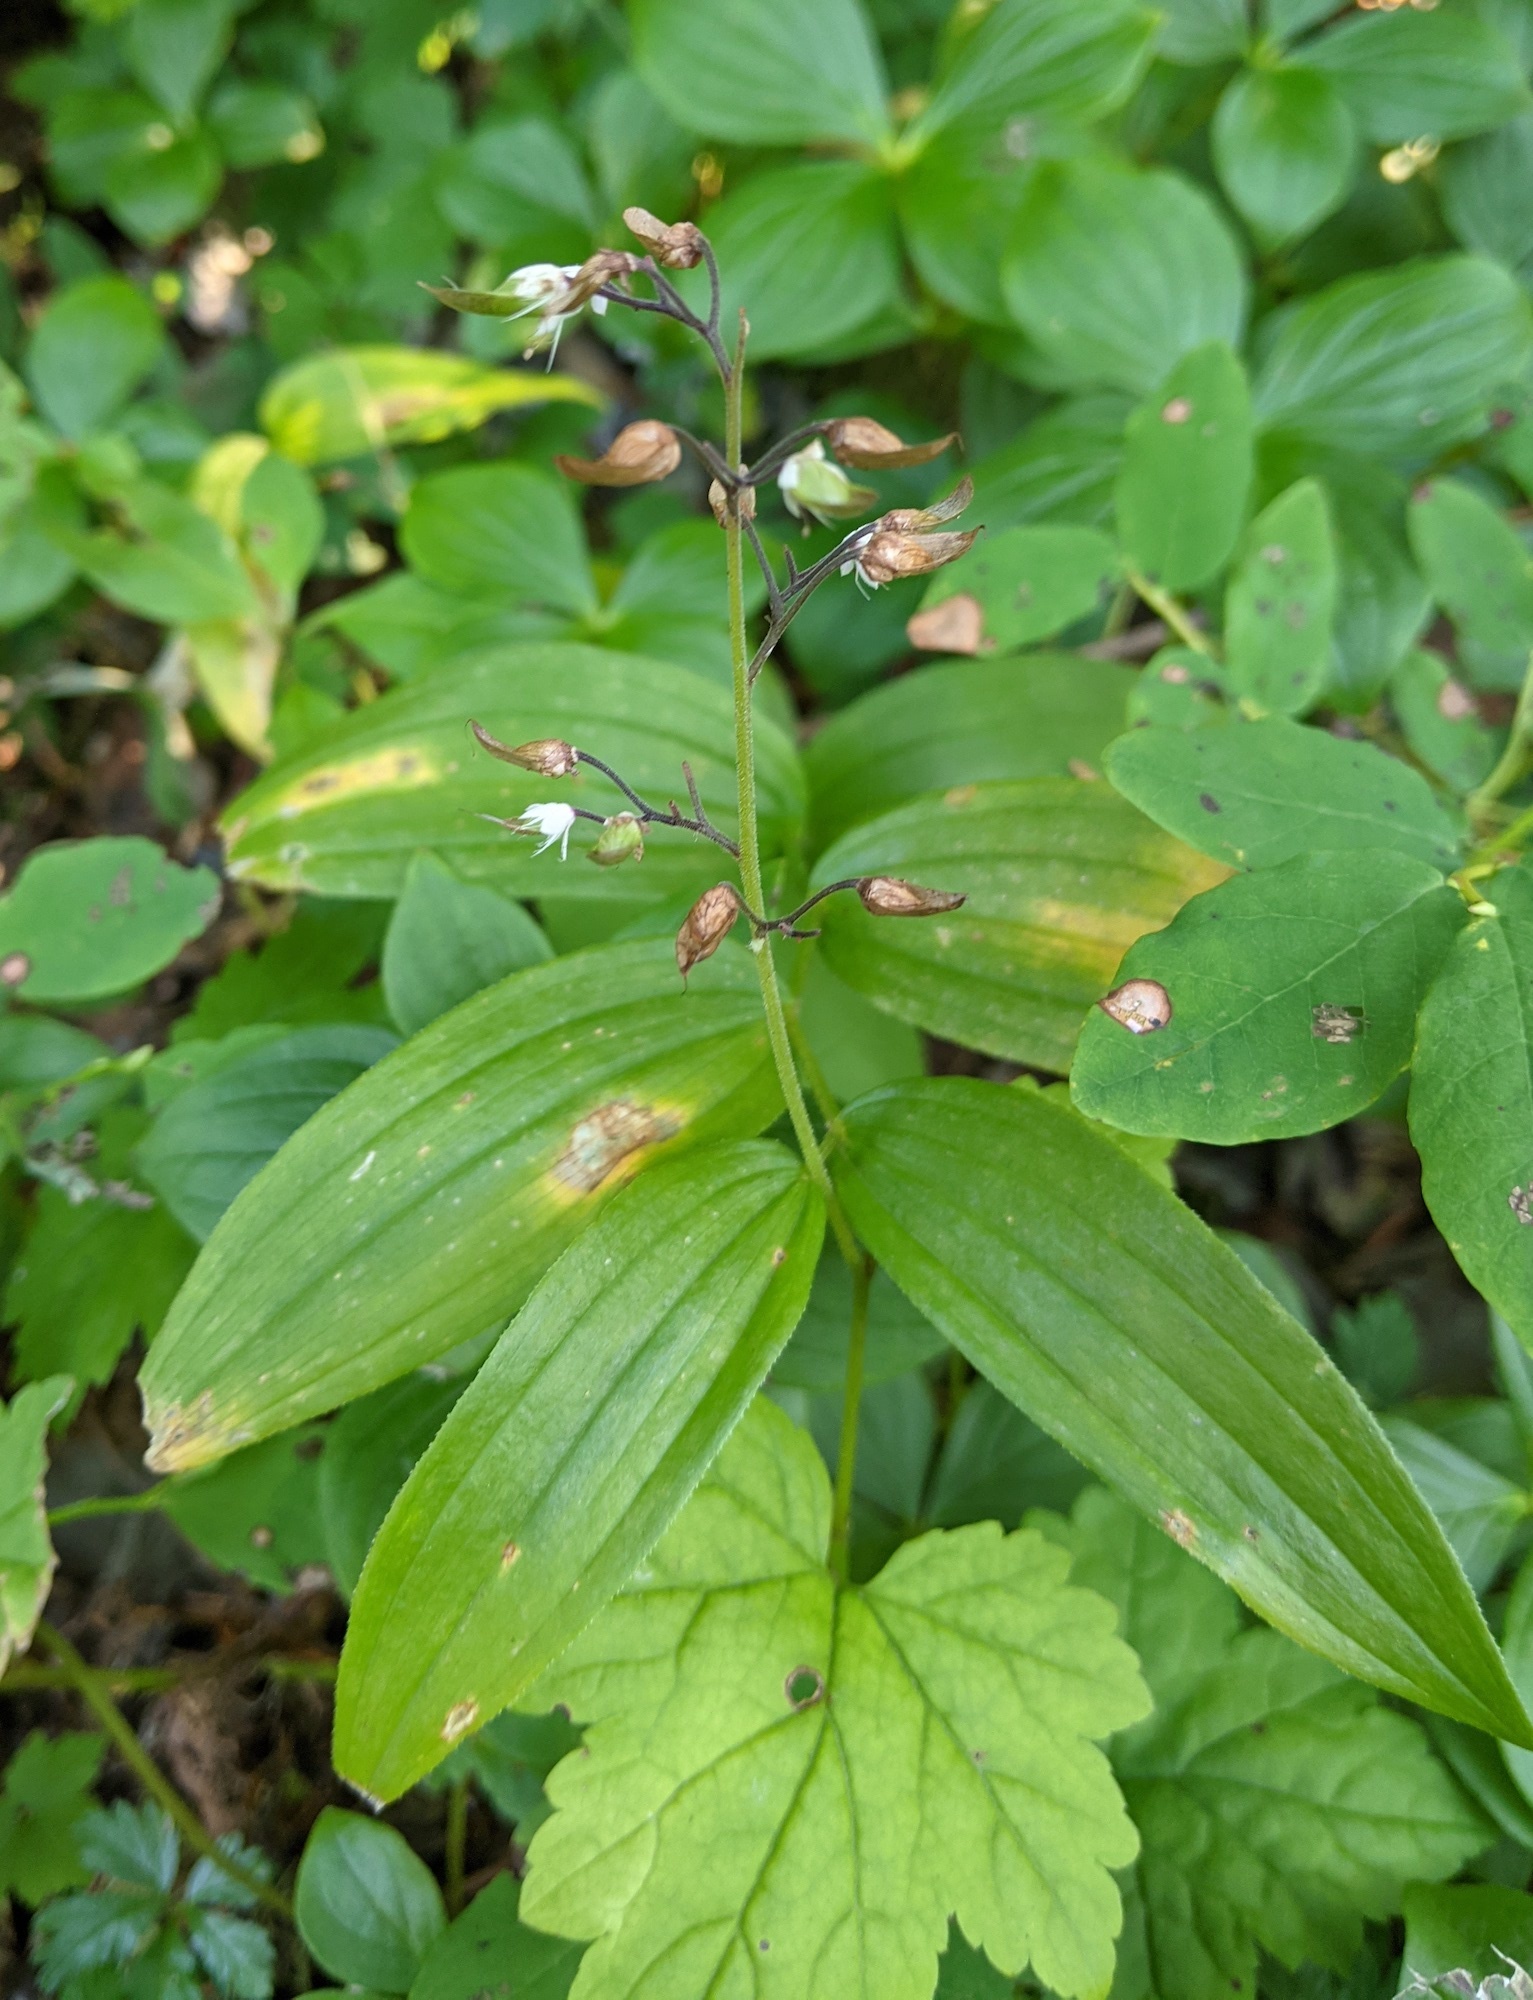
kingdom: Plantae
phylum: Tracheophyta
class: Magnoliopsida
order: Saxifragales
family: Saxifragaceae
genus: Tiarella
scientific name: Tiarella trifoliata
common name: Sugar-scoop
